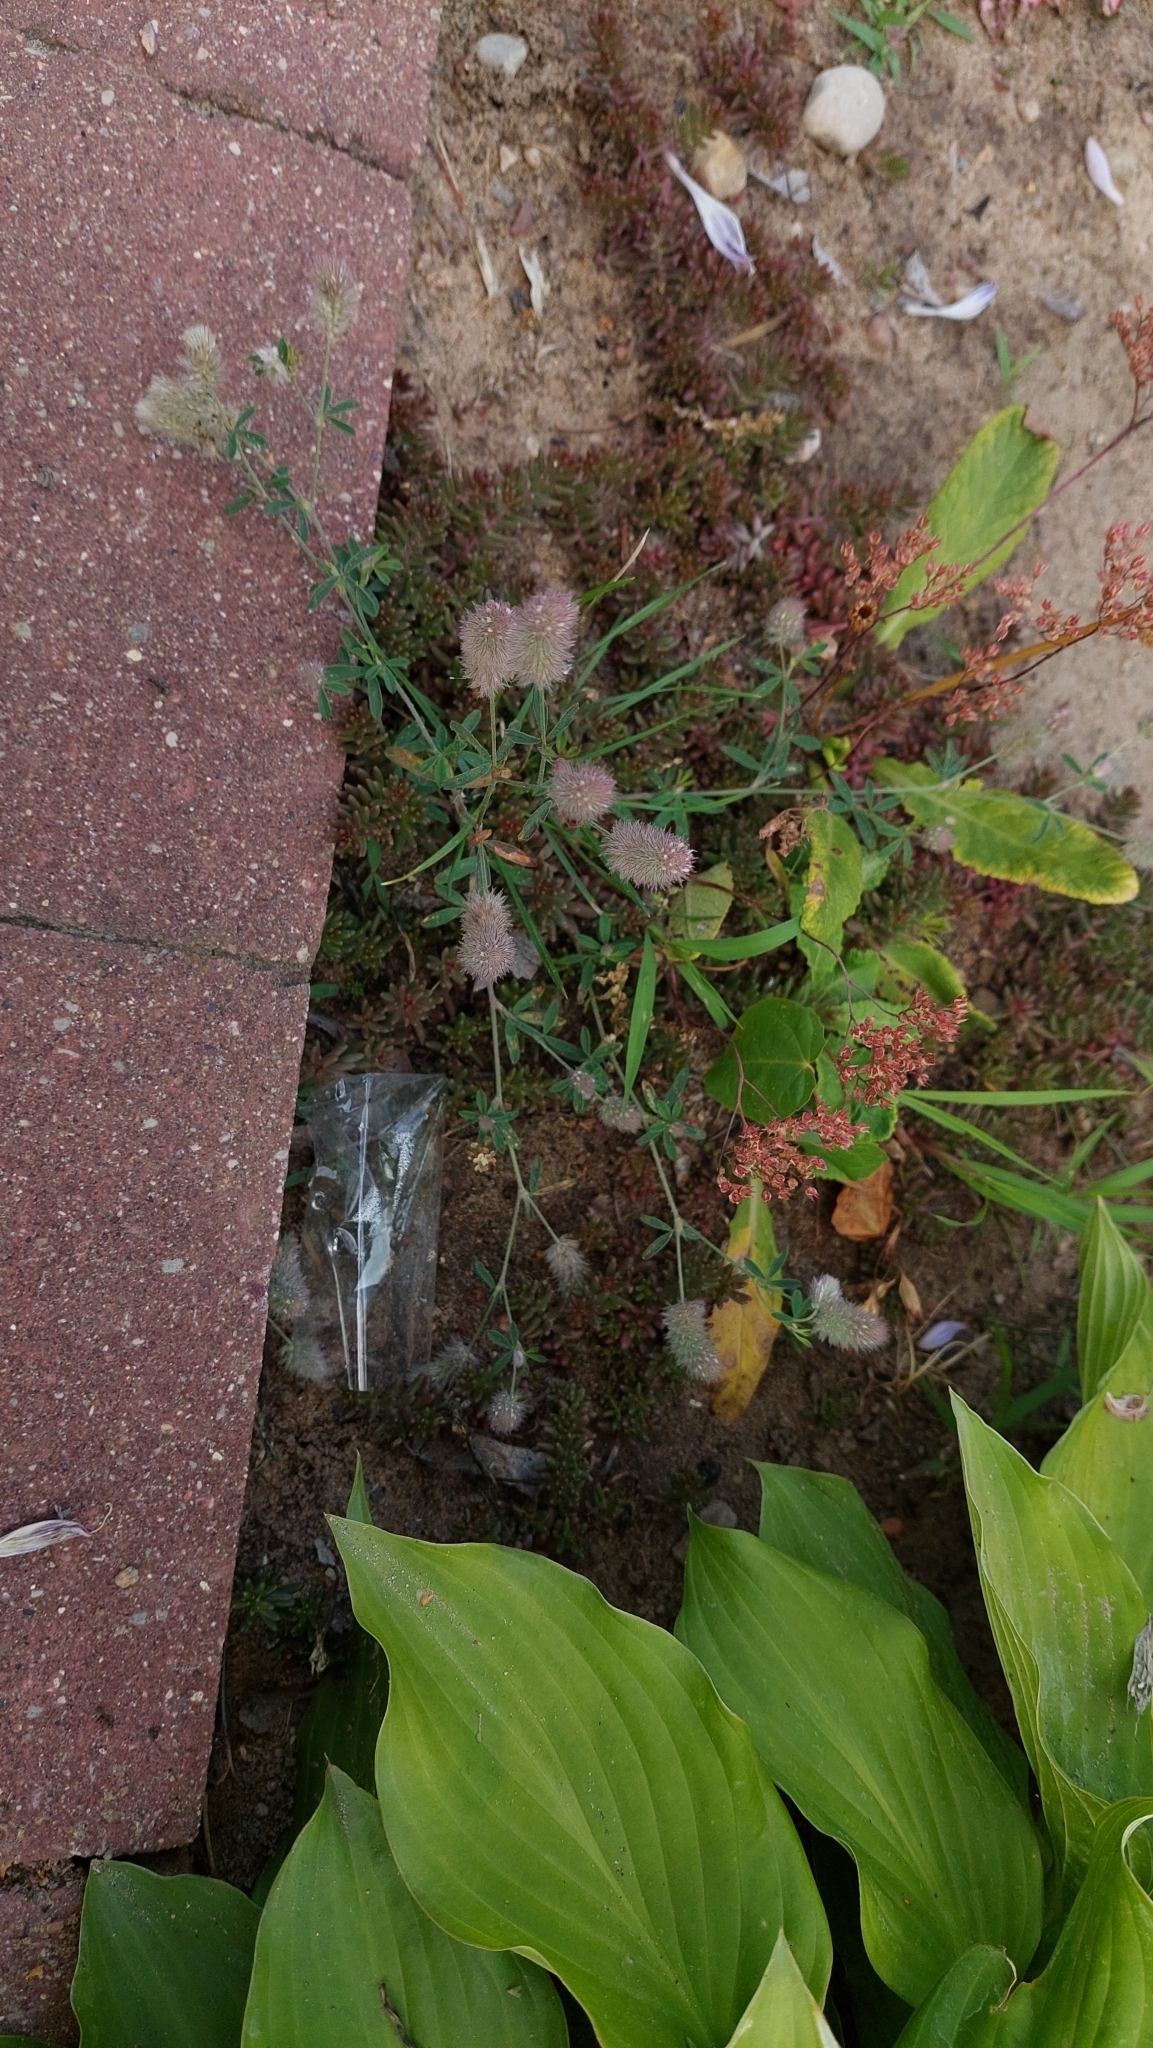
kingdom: Plantae
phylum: Tracheophyta
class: Magnoliopsida
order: Fabales
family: Fabaceae
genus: Trifolium
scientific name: Trifolium arvense
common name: Hare's-foot clover
